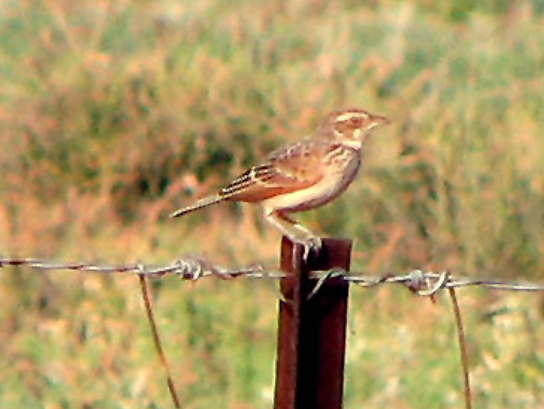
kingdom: Animalia
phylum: Chordata
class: Aves
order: Passeriformes
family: Alaudidae
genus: Mirafra
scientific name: Mirafra javanica
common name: Horsfield's bush lark
